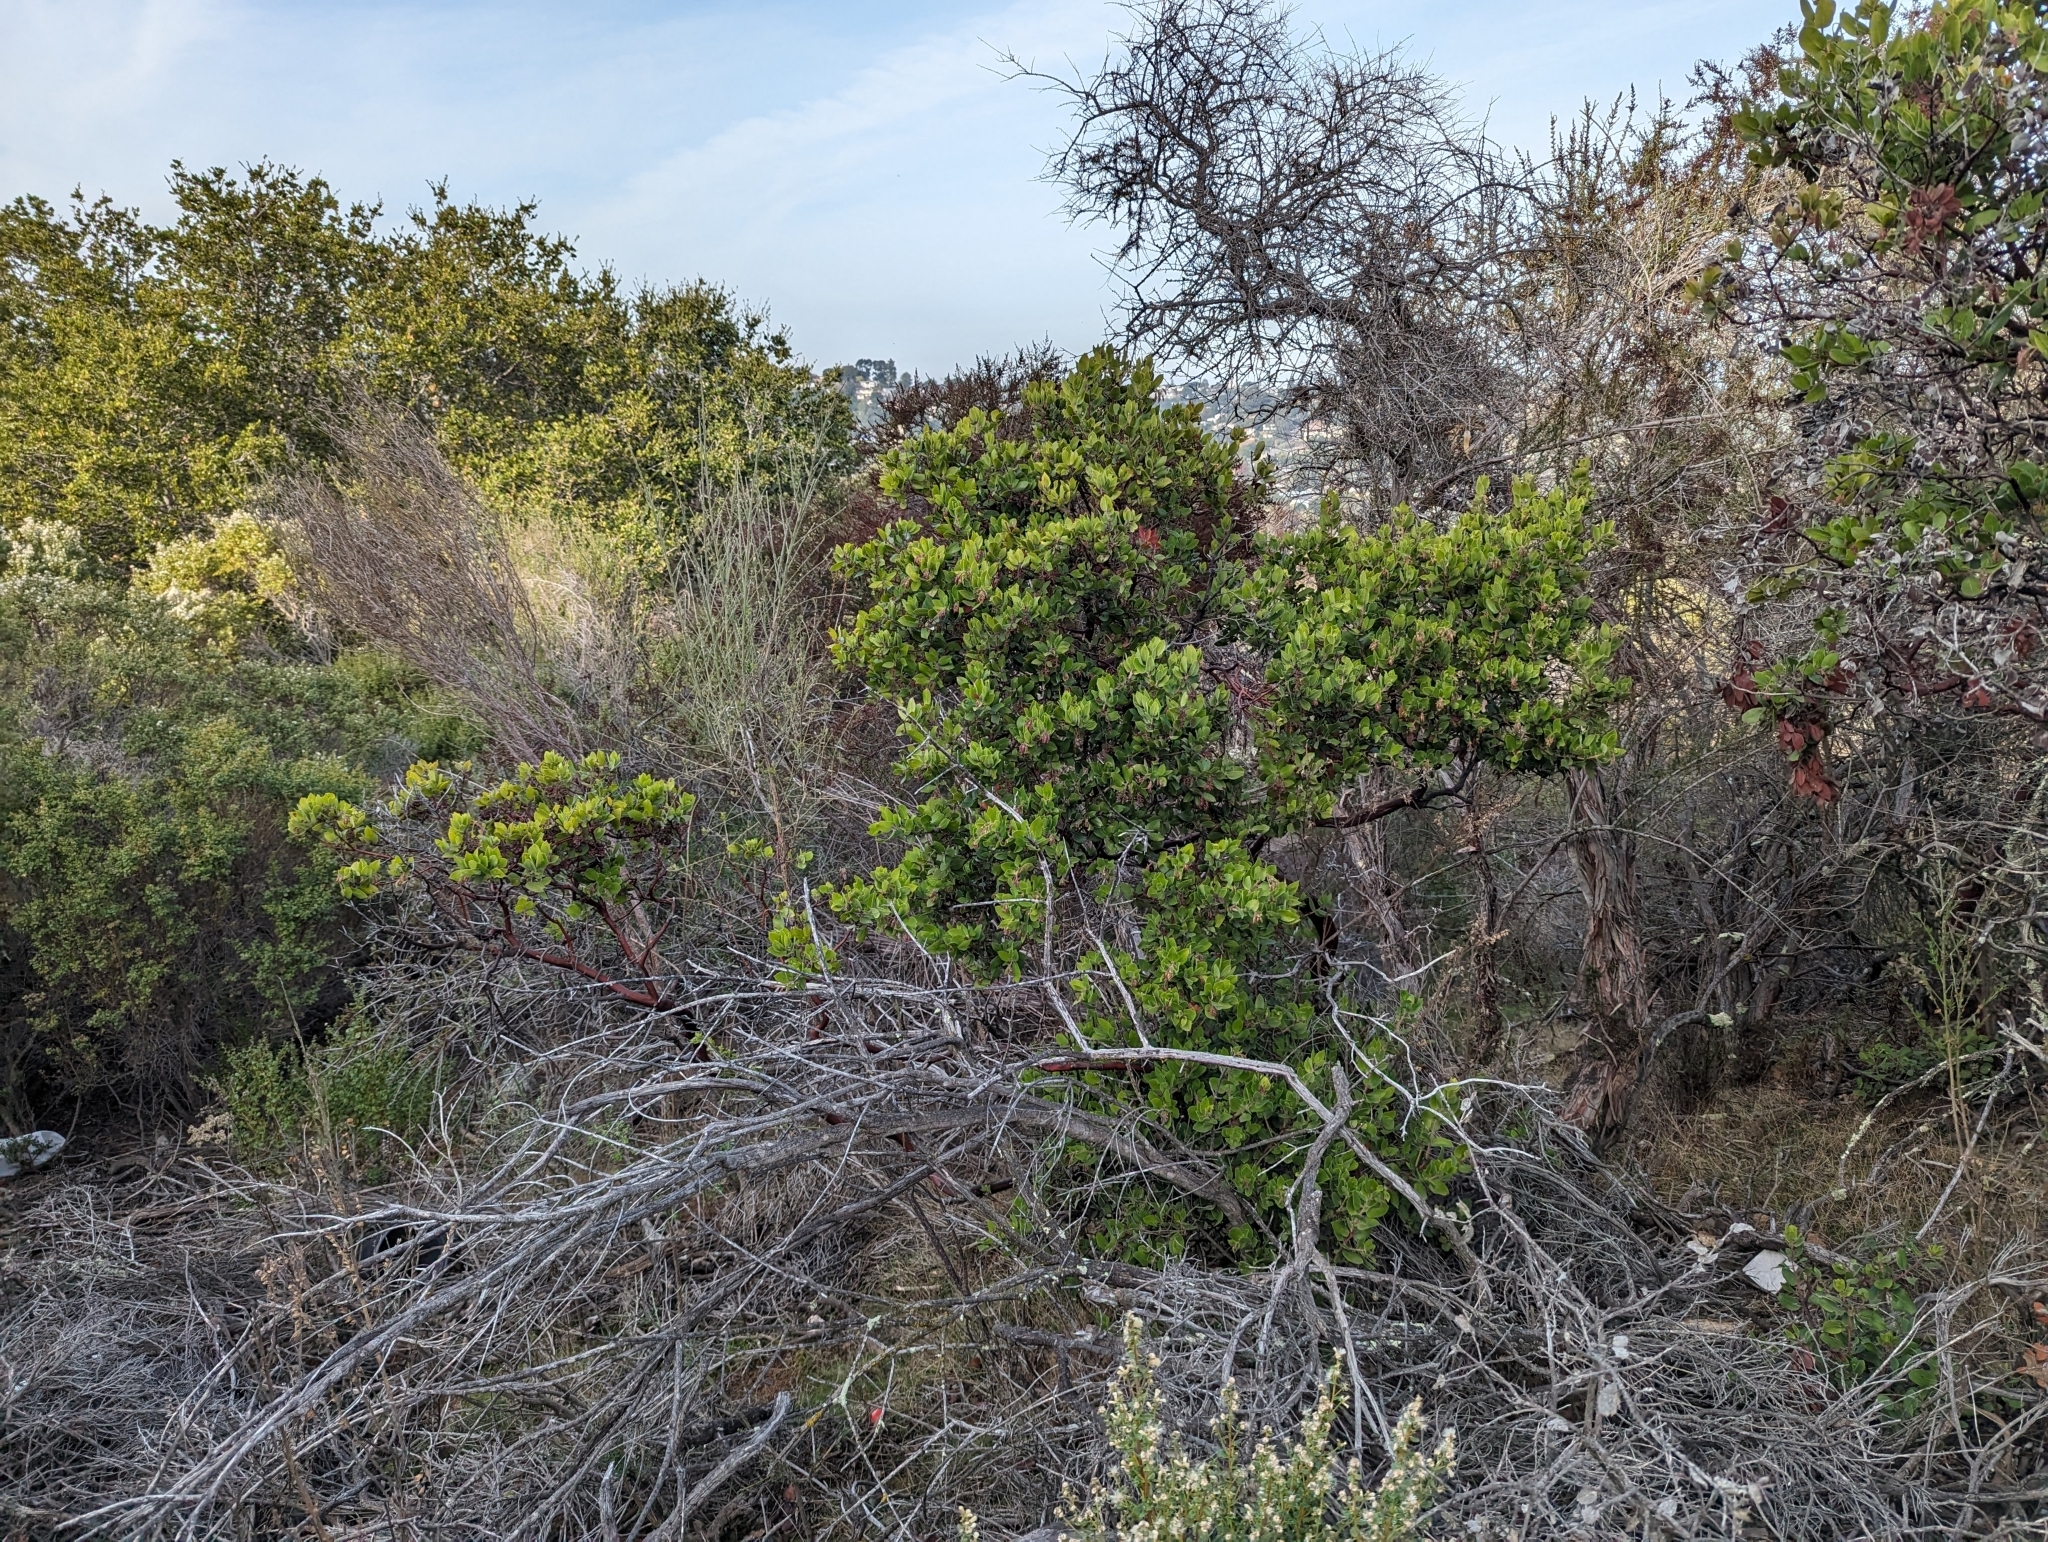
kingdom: Plantae
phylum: Tracheophyta
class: Magnoliopsida
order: Ericales
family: Ericaceae
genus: Arctostaphylos
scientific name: Arctostaphylos crustacea
